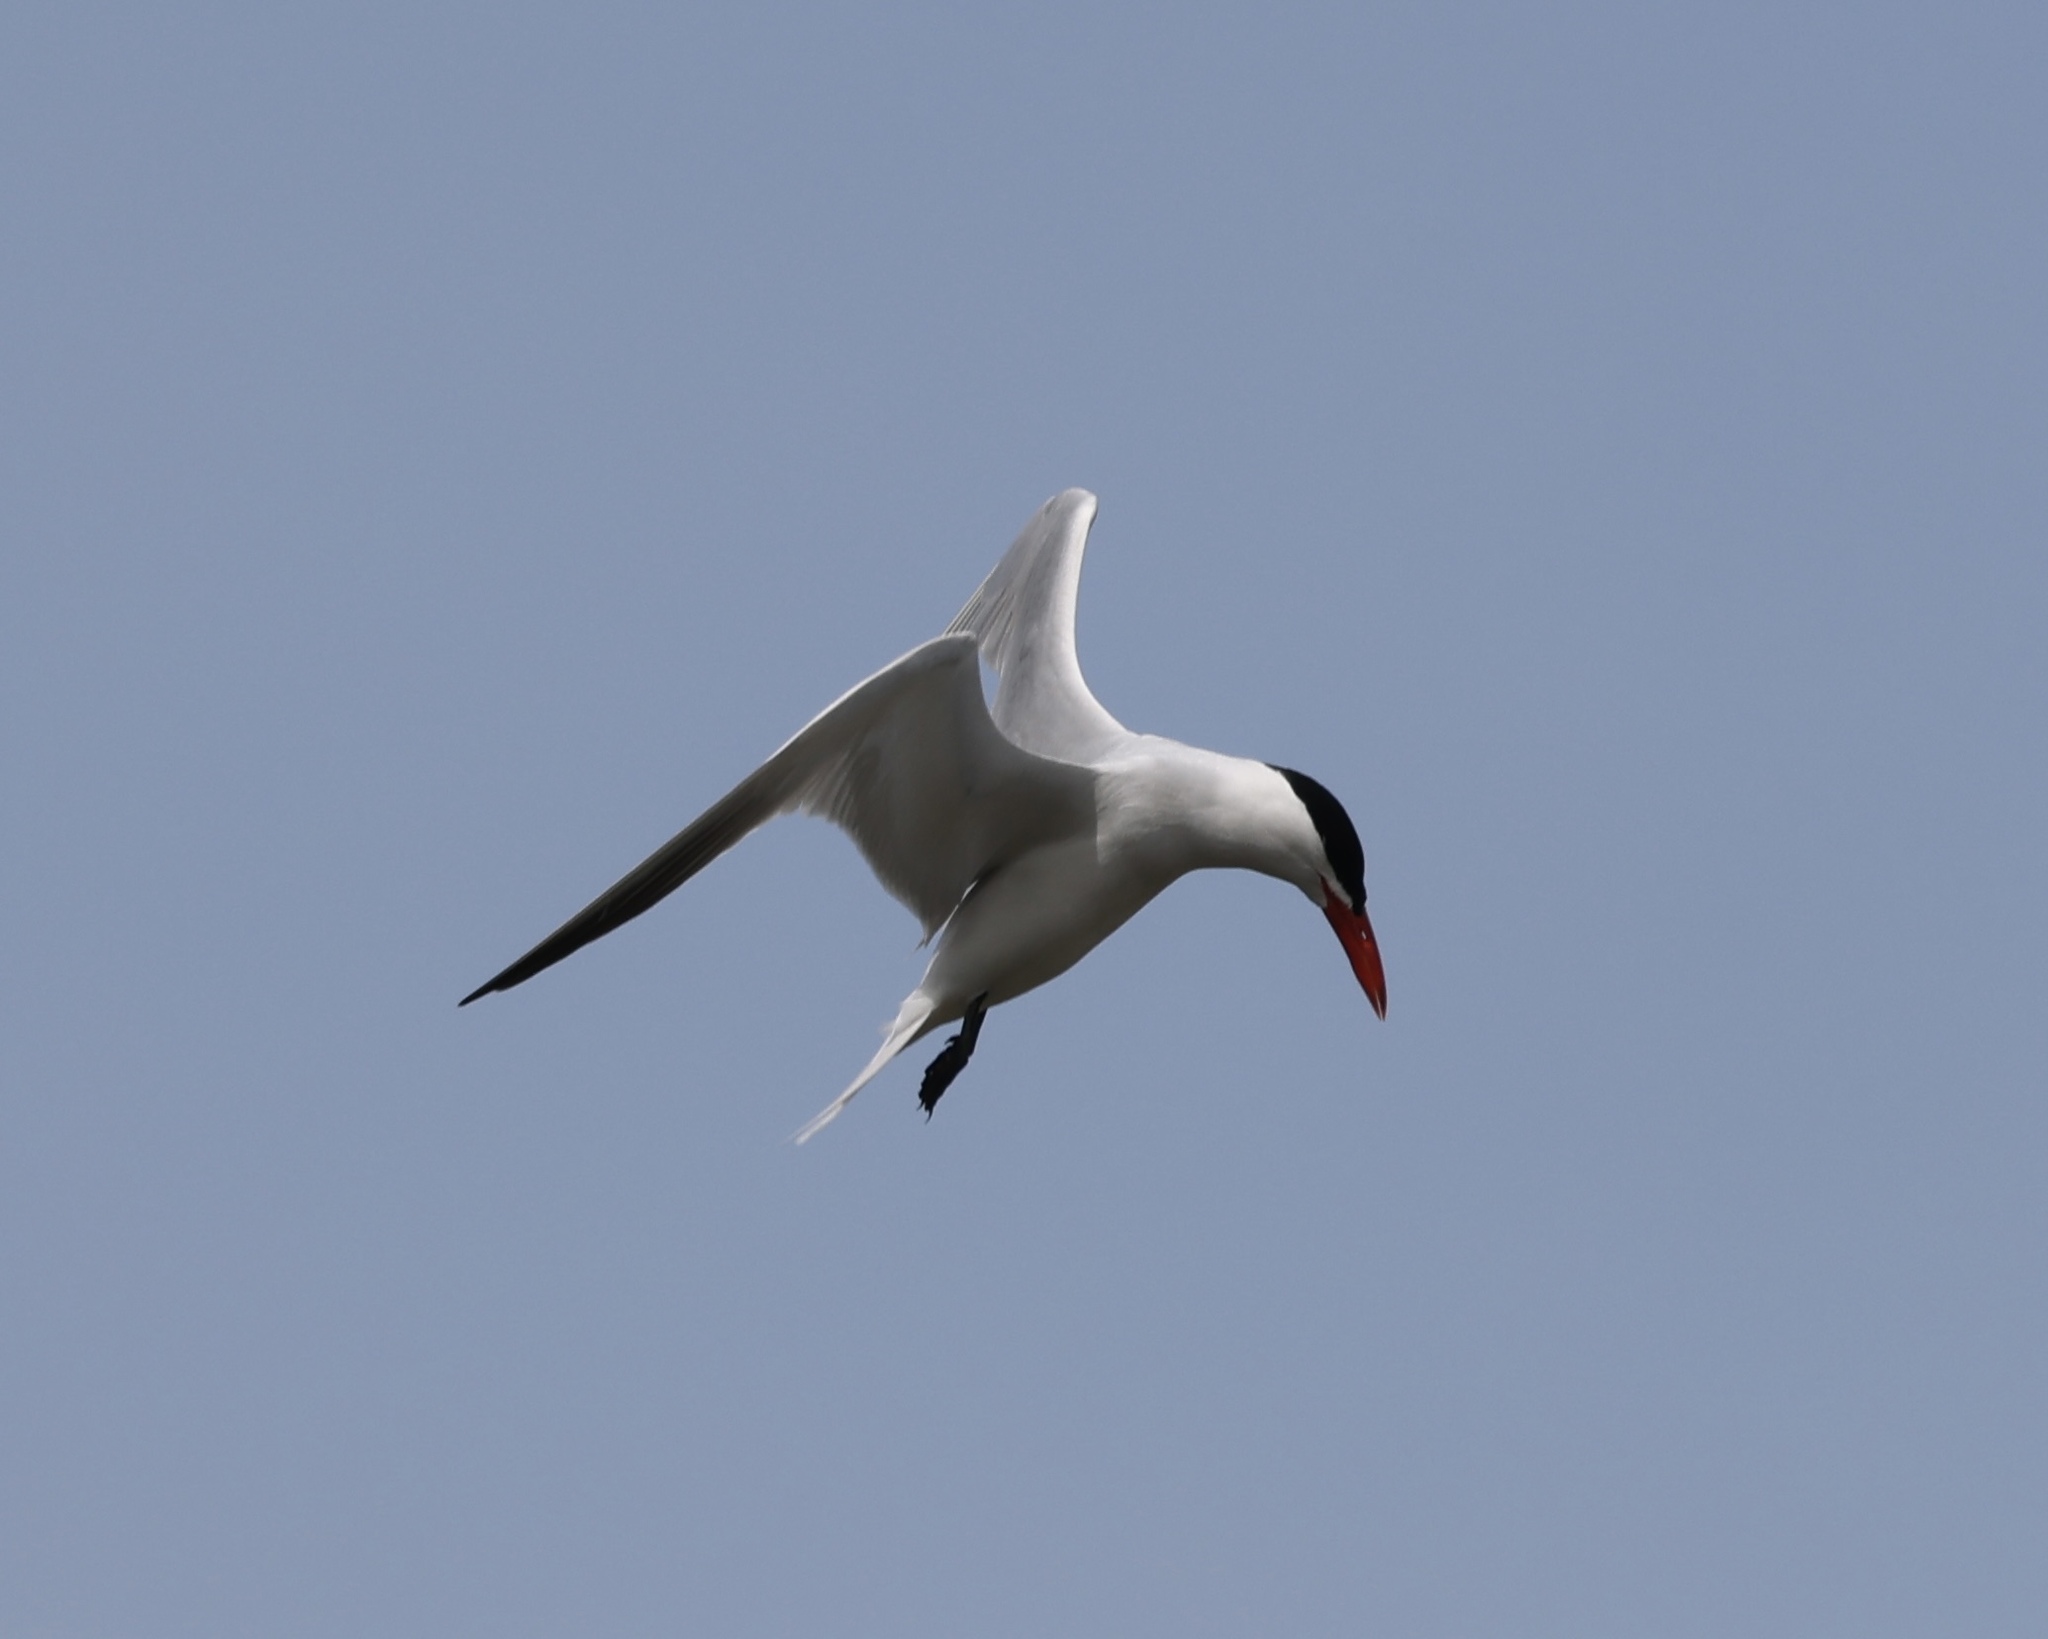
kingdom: Animalia
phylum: Chordata
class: Aves
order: Charadriiformes
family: Laridae
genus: Hydroprogne
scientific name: Hydroprogne caspia
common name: Caspian tern
